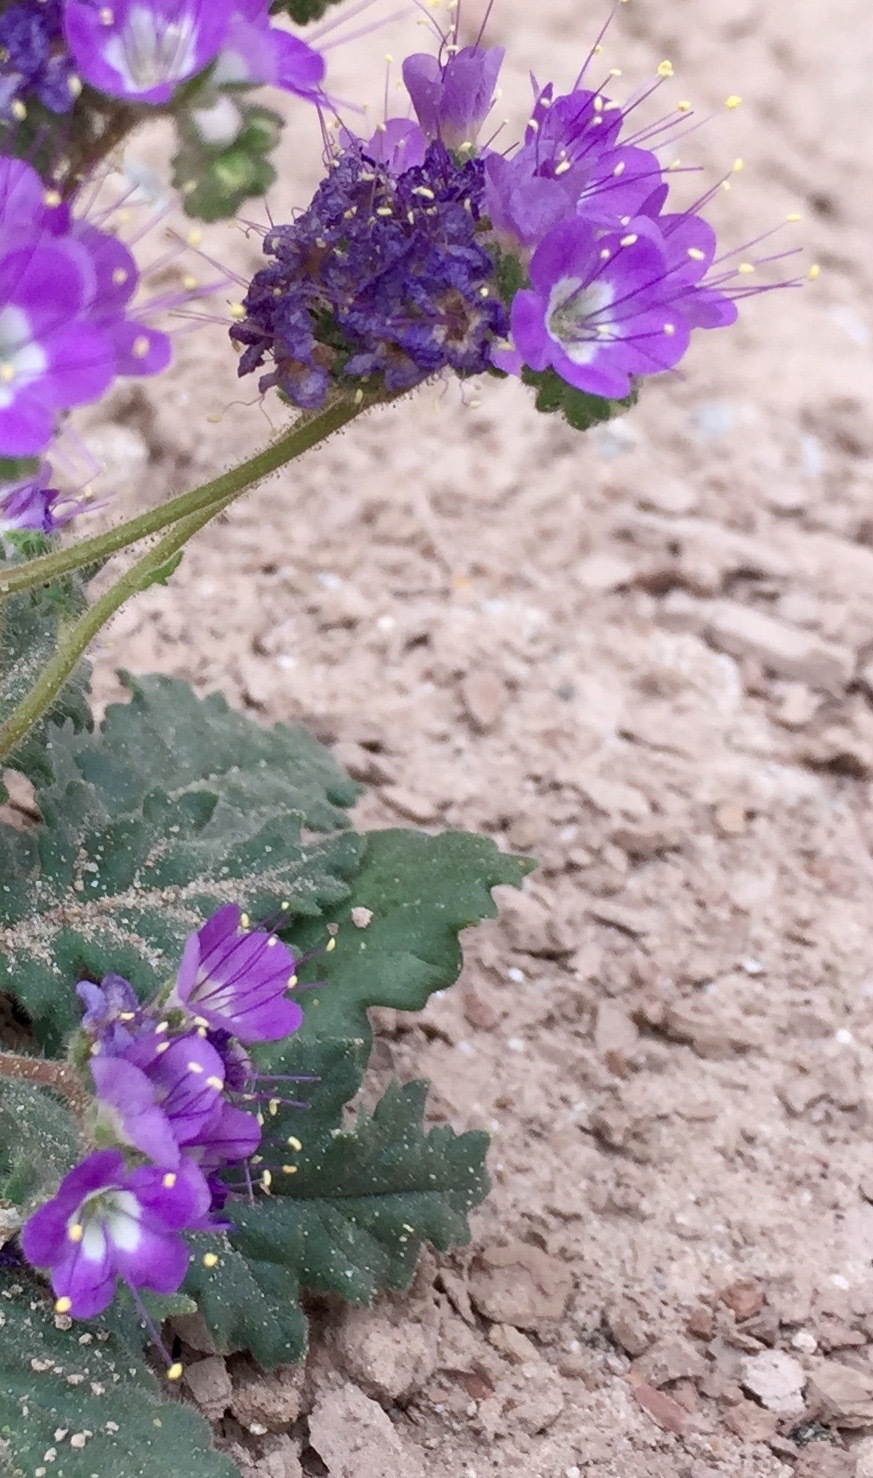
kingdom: Plantae
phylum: Tracheophyta
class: Magnoliopsida
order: Boraginales
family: Hydrophyllaceae
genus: Phacelia
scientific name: Phacelia crenulata
